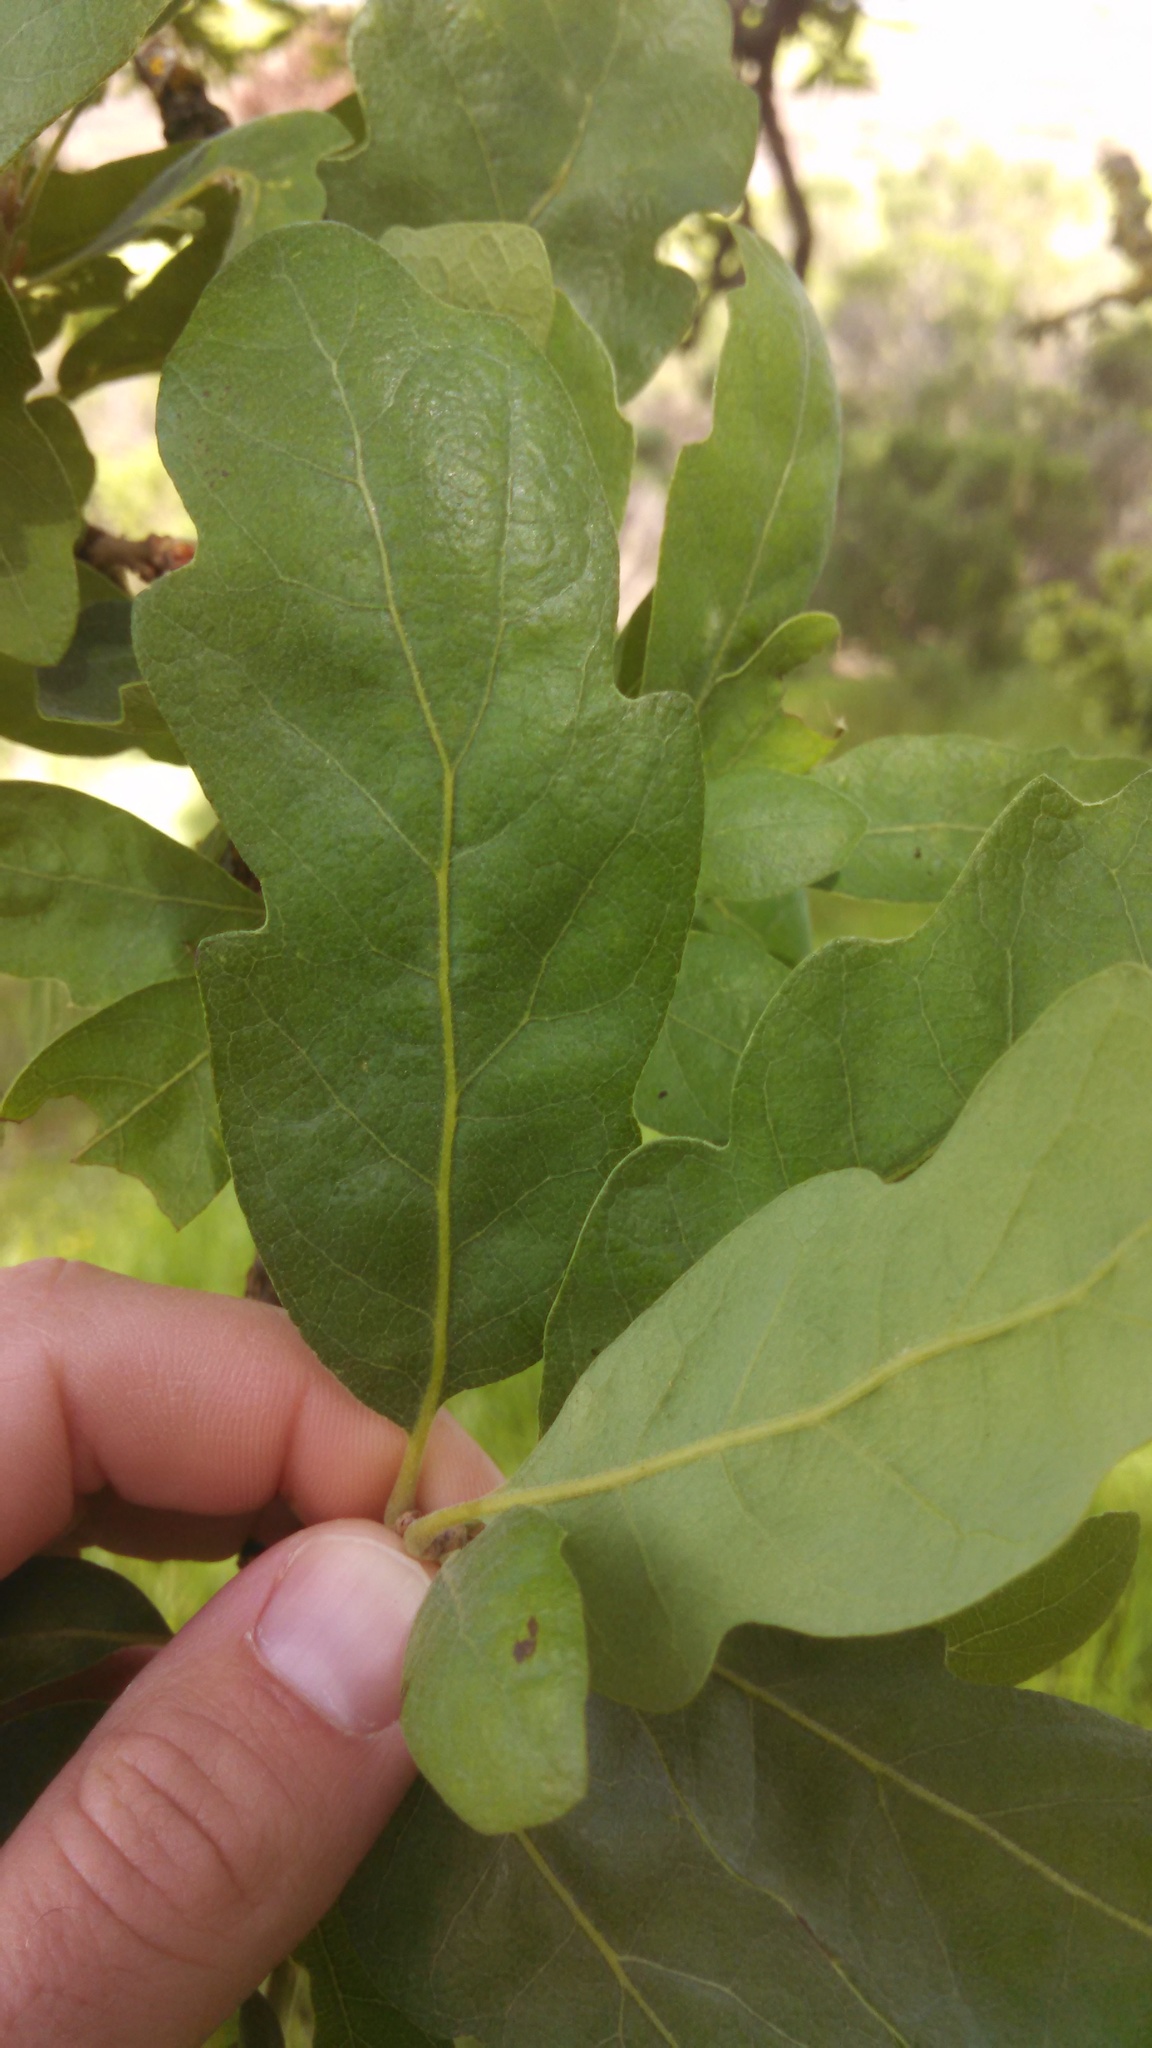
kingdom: Plantae
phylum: Tracheophyta
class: Magnoliopsida
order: Fagales
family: Fagaceae
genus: Quercus
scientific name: Quercus douglasii
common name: Blue oak
